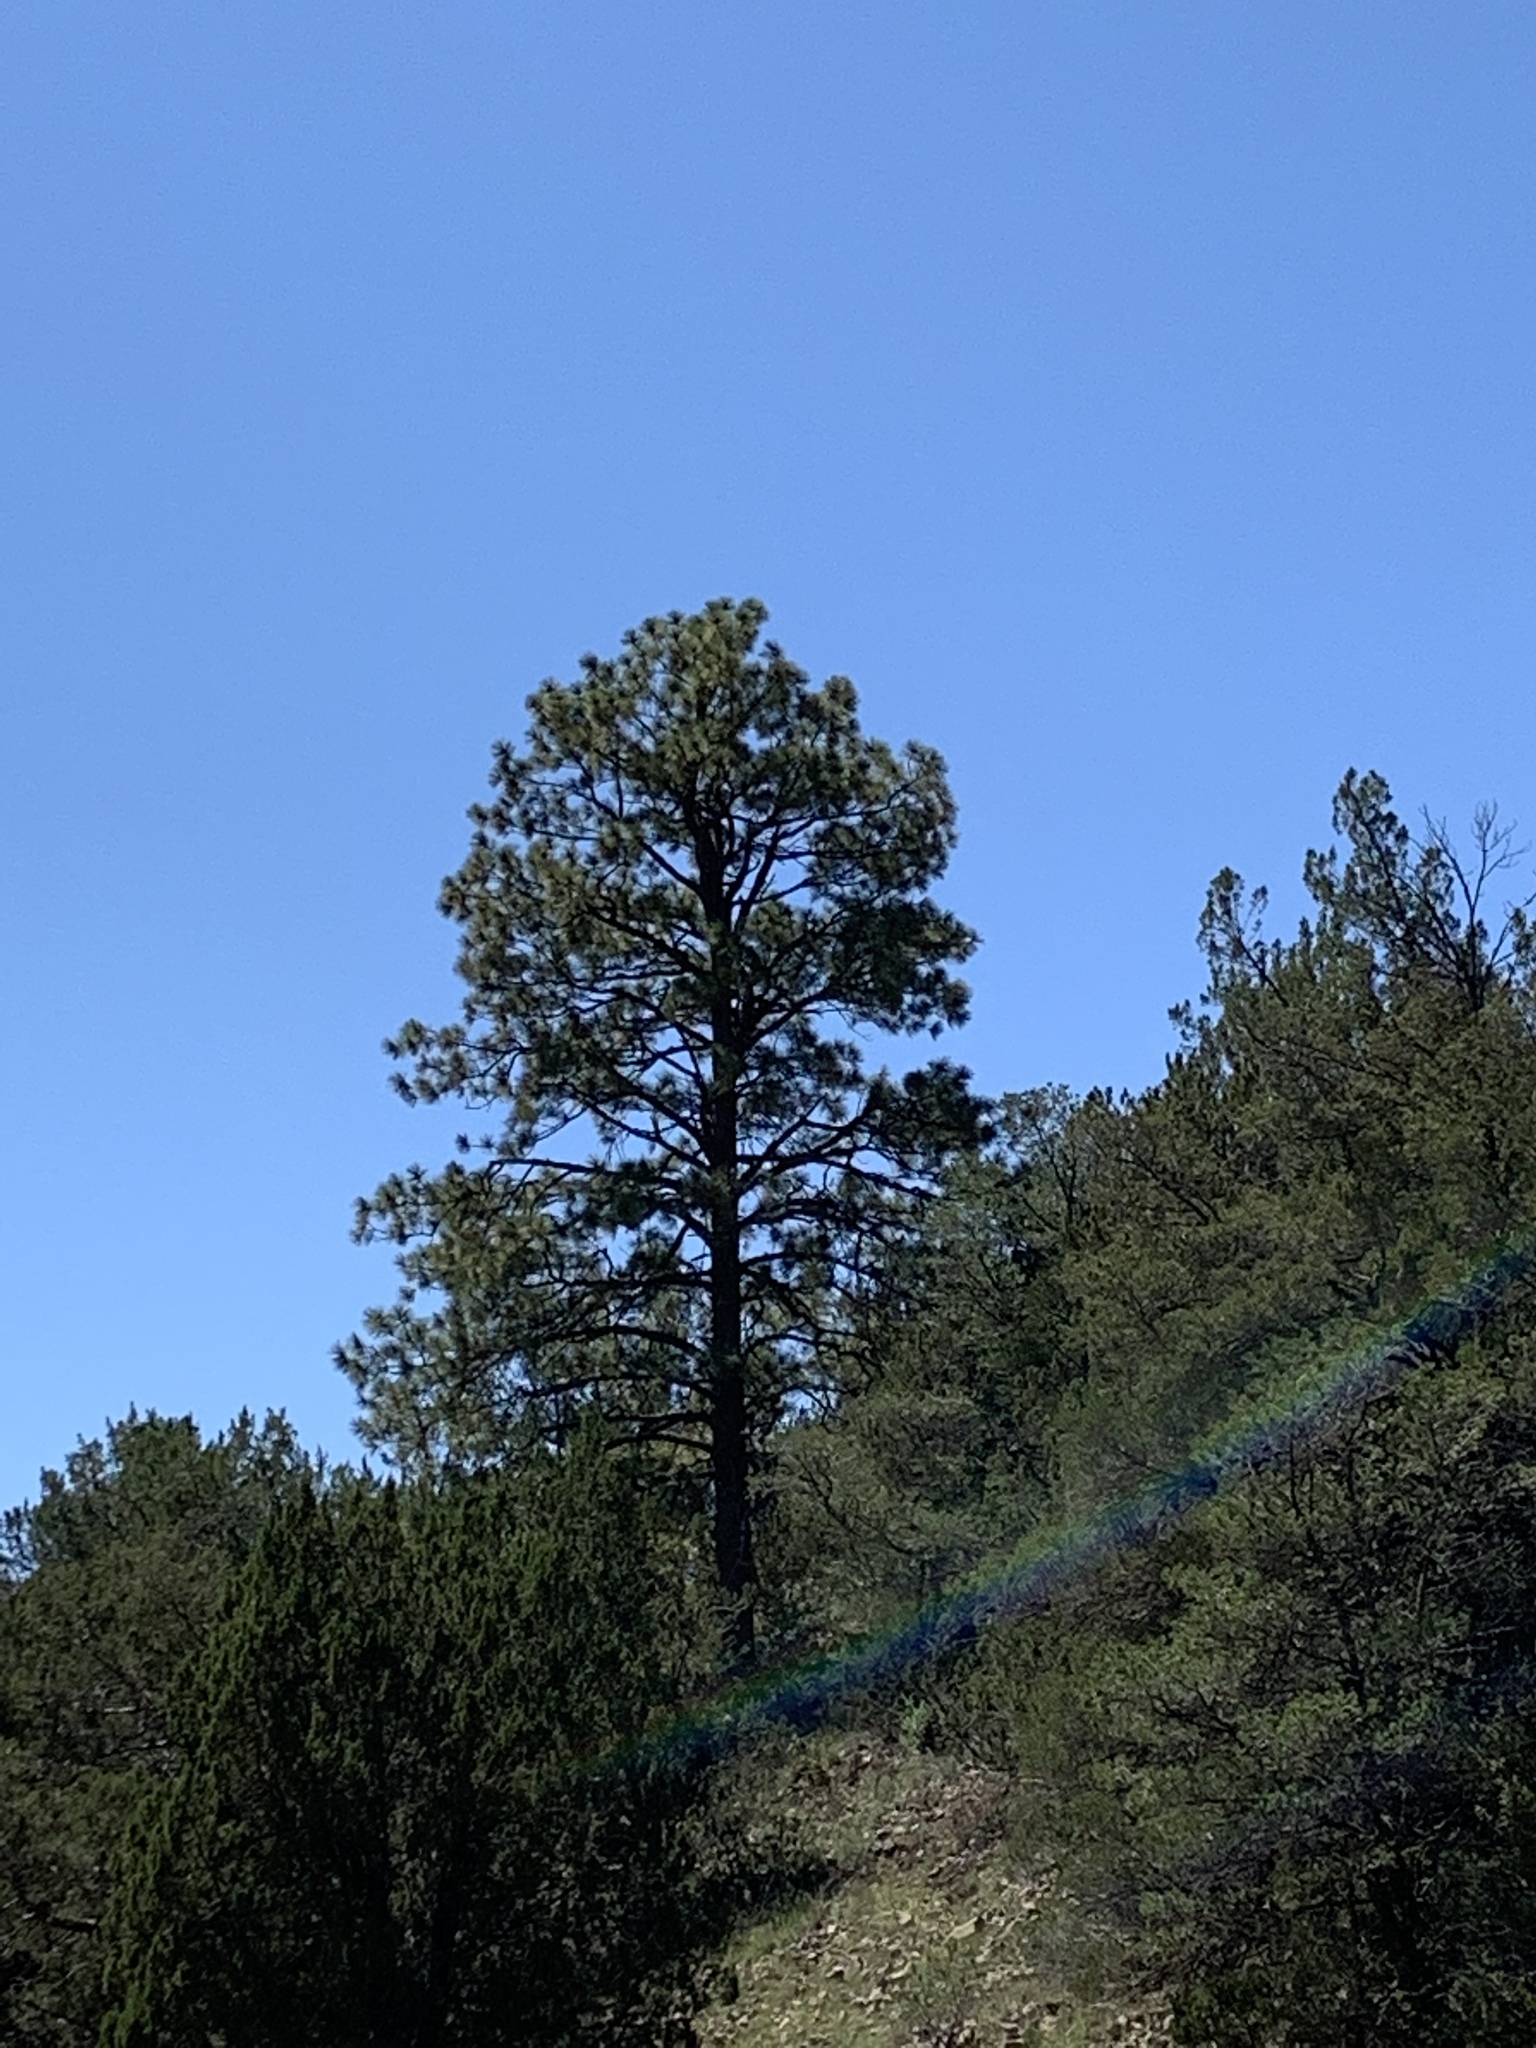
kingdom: Plantae
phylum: Tracheophyta
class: Pinopsida
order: Pinales
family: Pinaceae
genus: Pinus
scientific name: Pinus ponderosa
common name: Western yellow-pine
